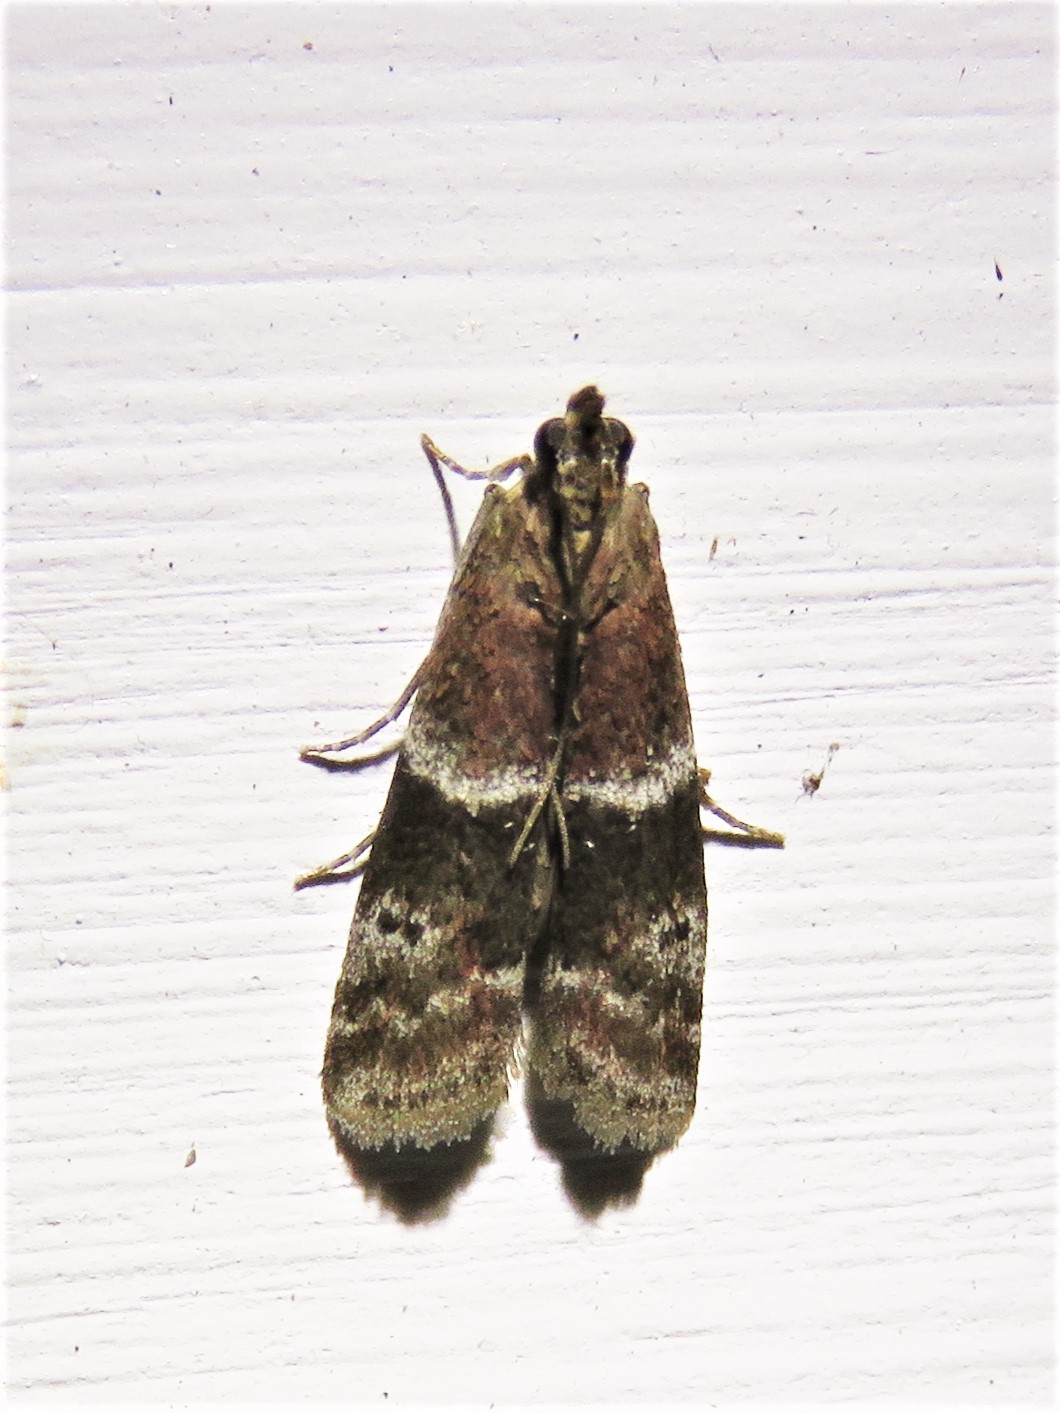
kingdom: Animalia
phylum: Arthropoda
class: Insecta
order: Lepidoptera
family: Pyralidae
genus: Moodna
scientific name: Moodna ostrinella
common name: Darker moodna moth
